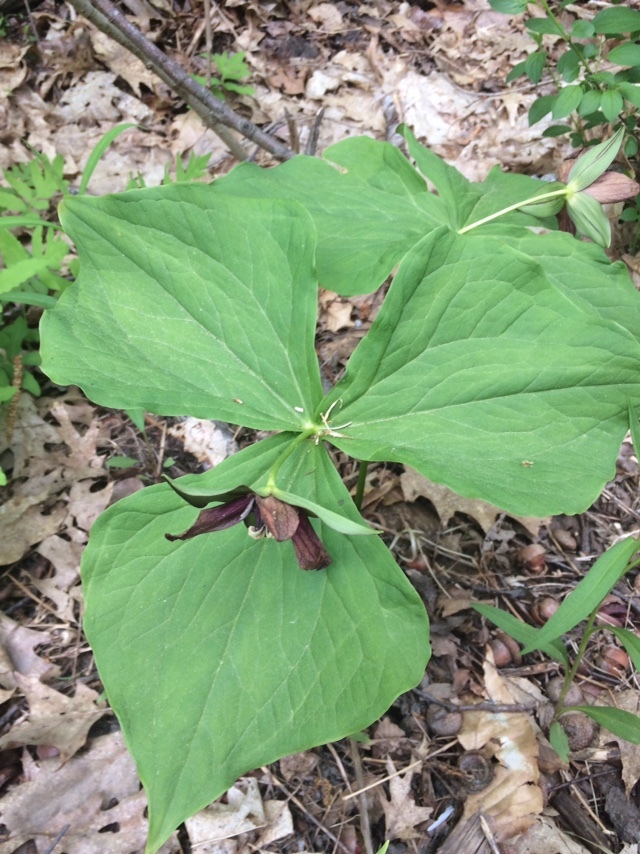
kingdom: Plantae
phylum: Tracheophyta
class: Liliopsida
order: Liliales
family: Melanthiaceae
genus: Trillium
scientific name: Trillium erectum
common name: Purple trillium
